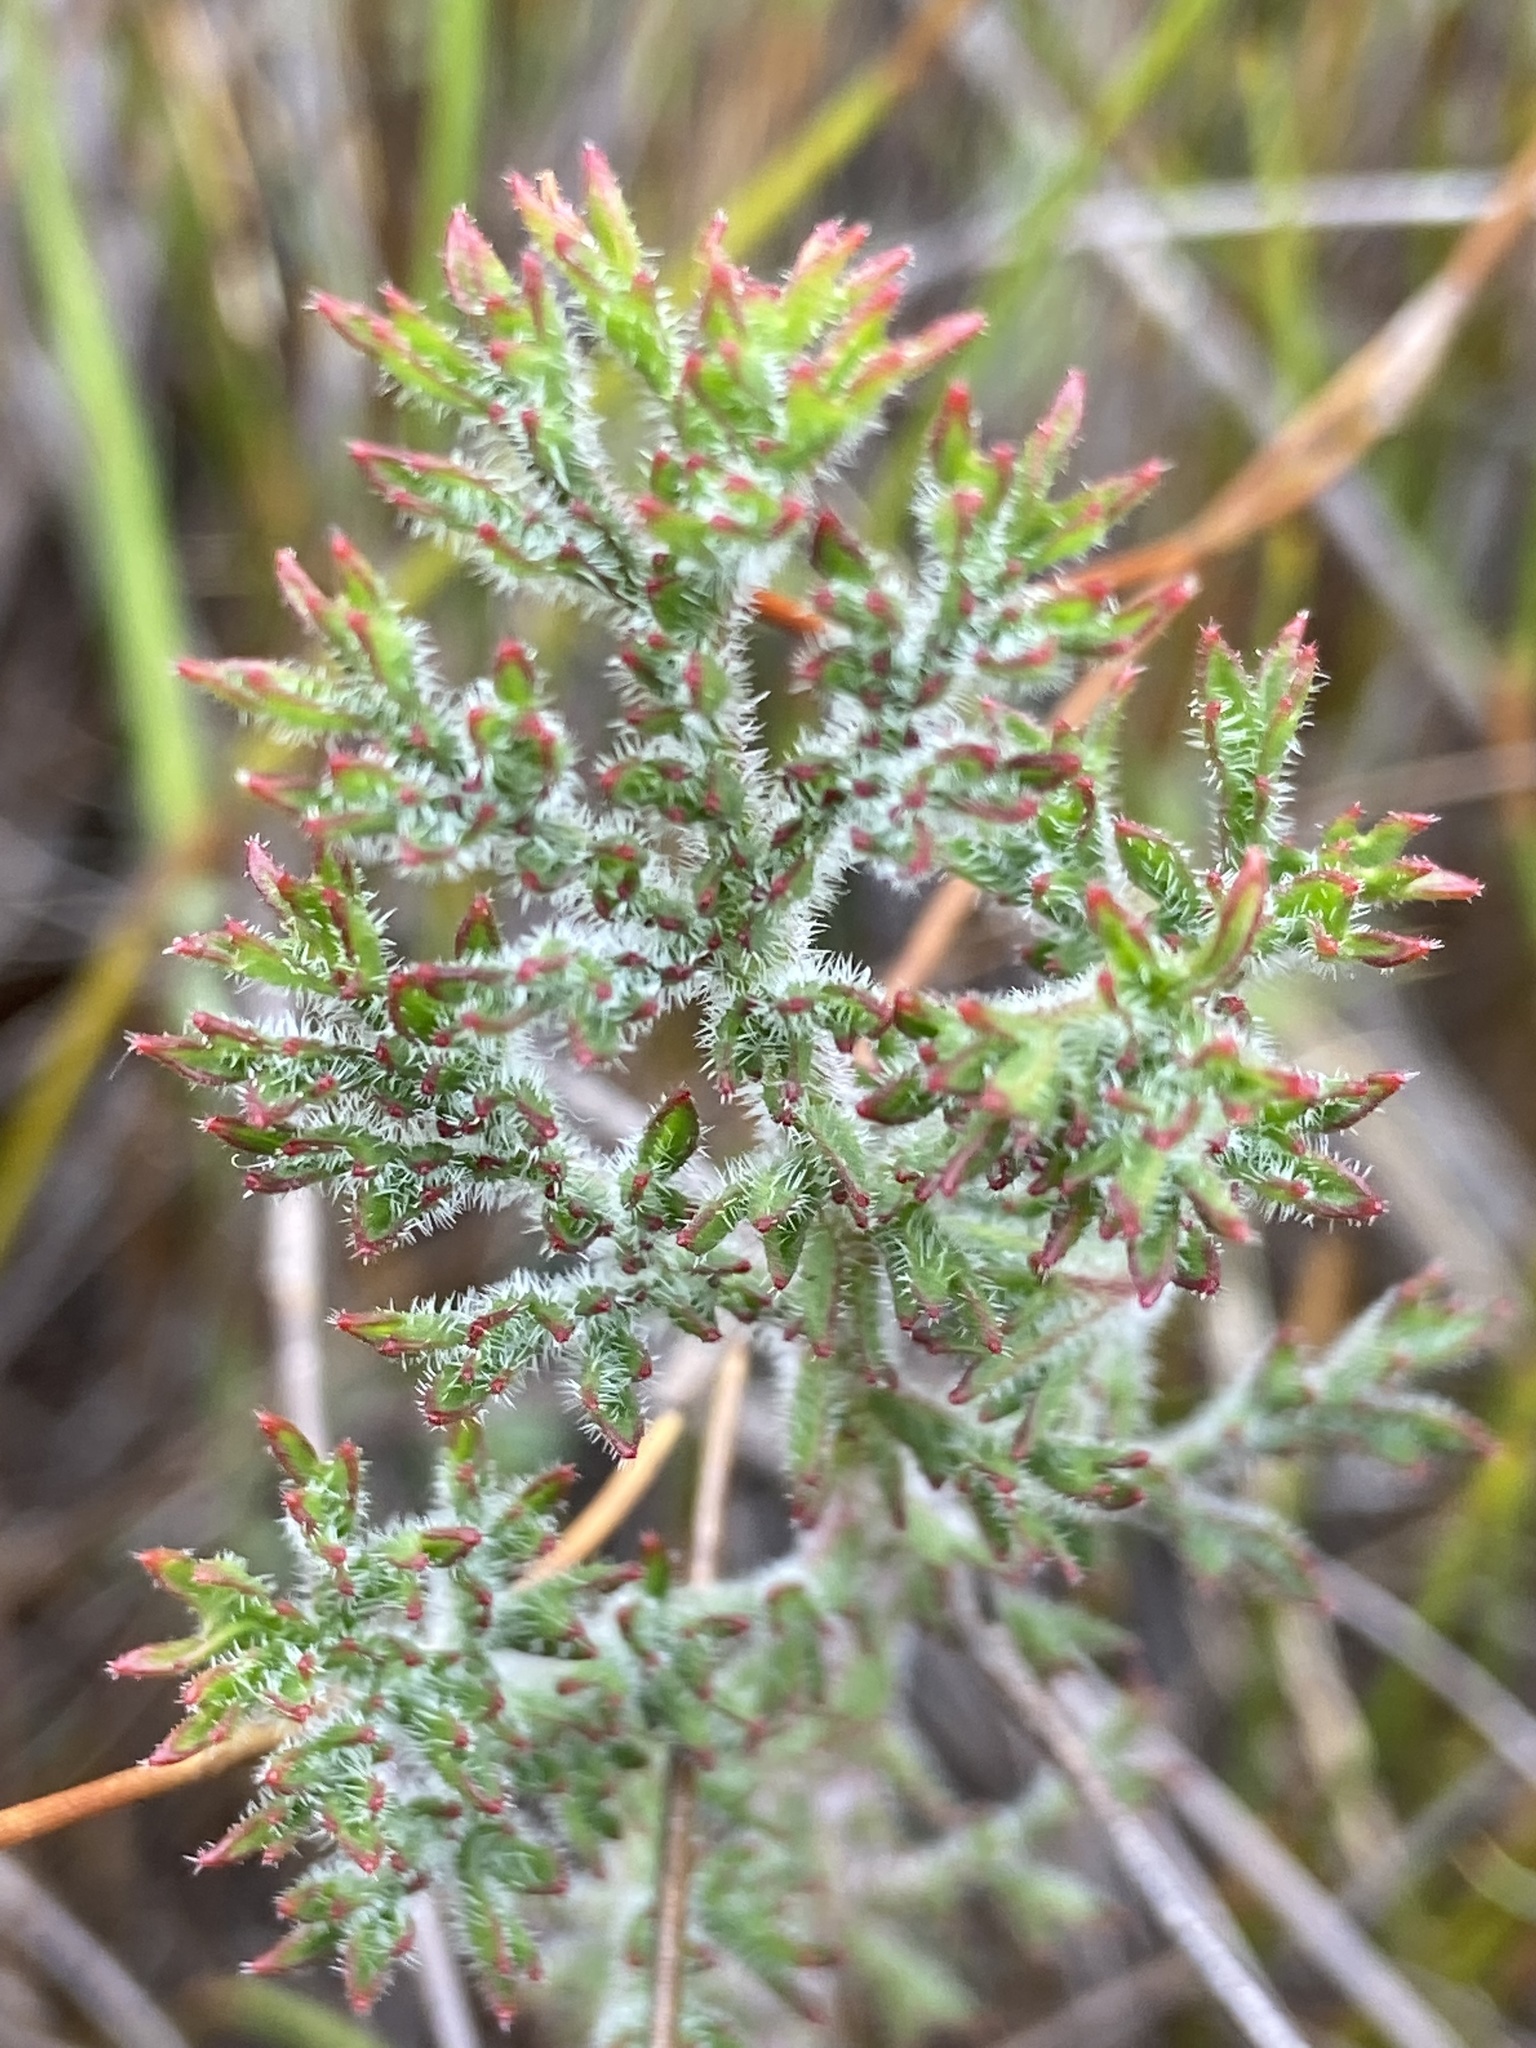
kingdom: Plantae
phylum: Tracheophyta
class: Magnoliopsida
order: Geraniales
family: Geraniaceae
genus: Pelargonium
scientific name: Pelargonium triste
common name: Night-scent pelargonium
